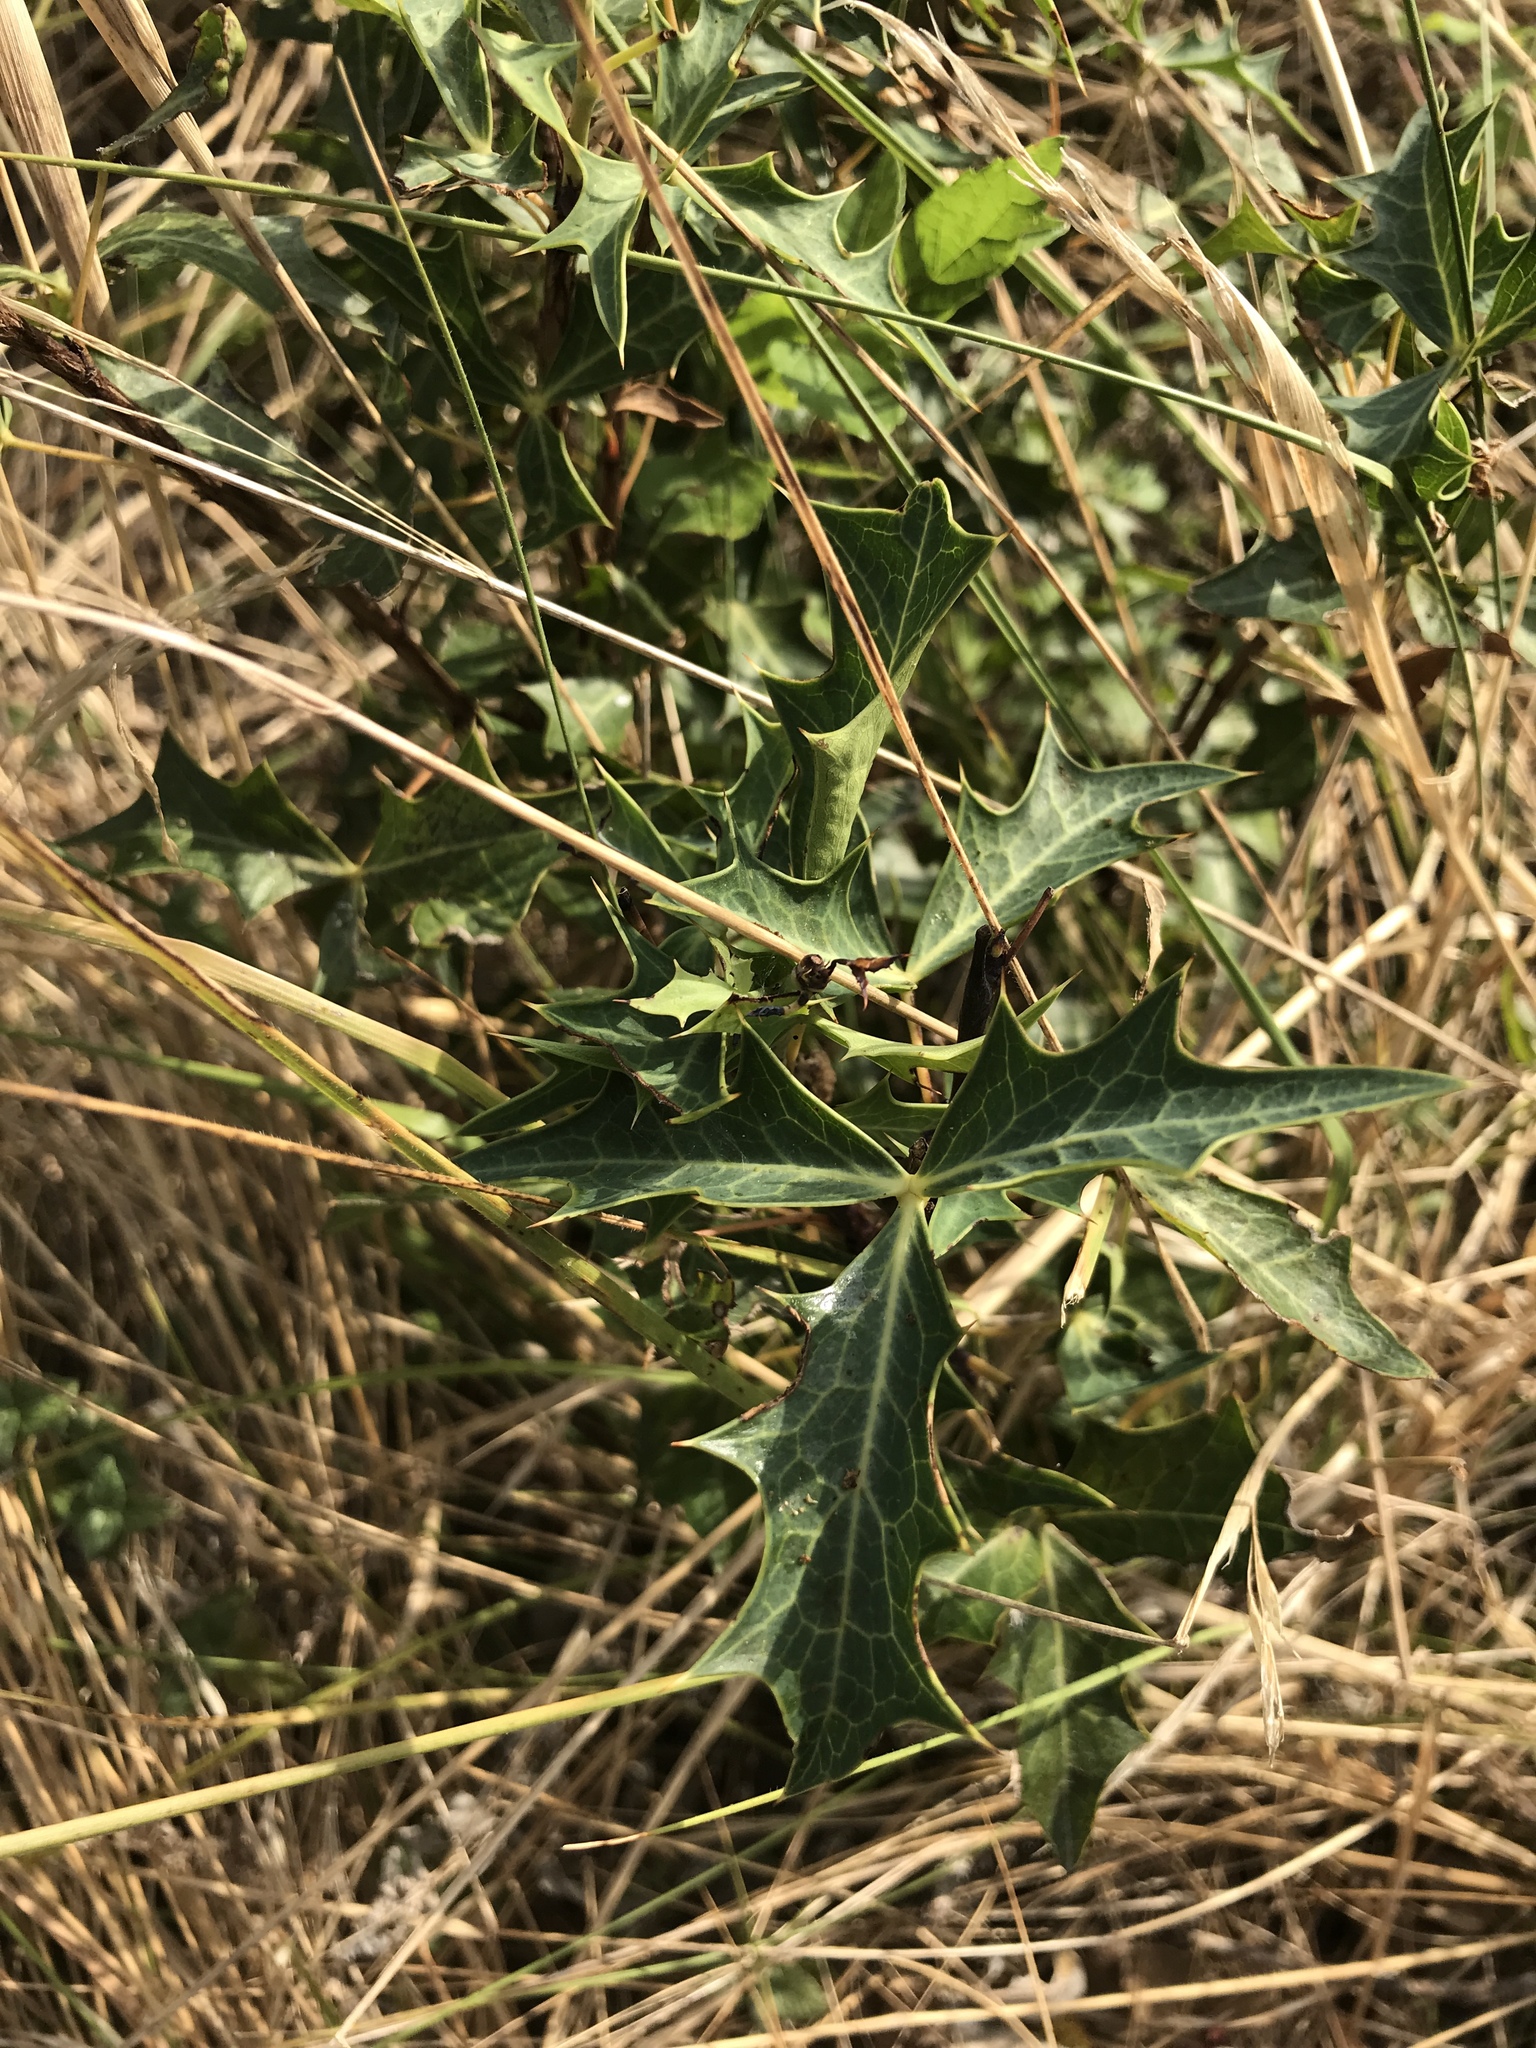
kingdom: Plantae
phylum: Tracheophyta
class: Magnoliopsida
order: Ranunculales
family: Berberidaceae
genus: Alloberberis
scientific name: Alloberberis trifoliolata
